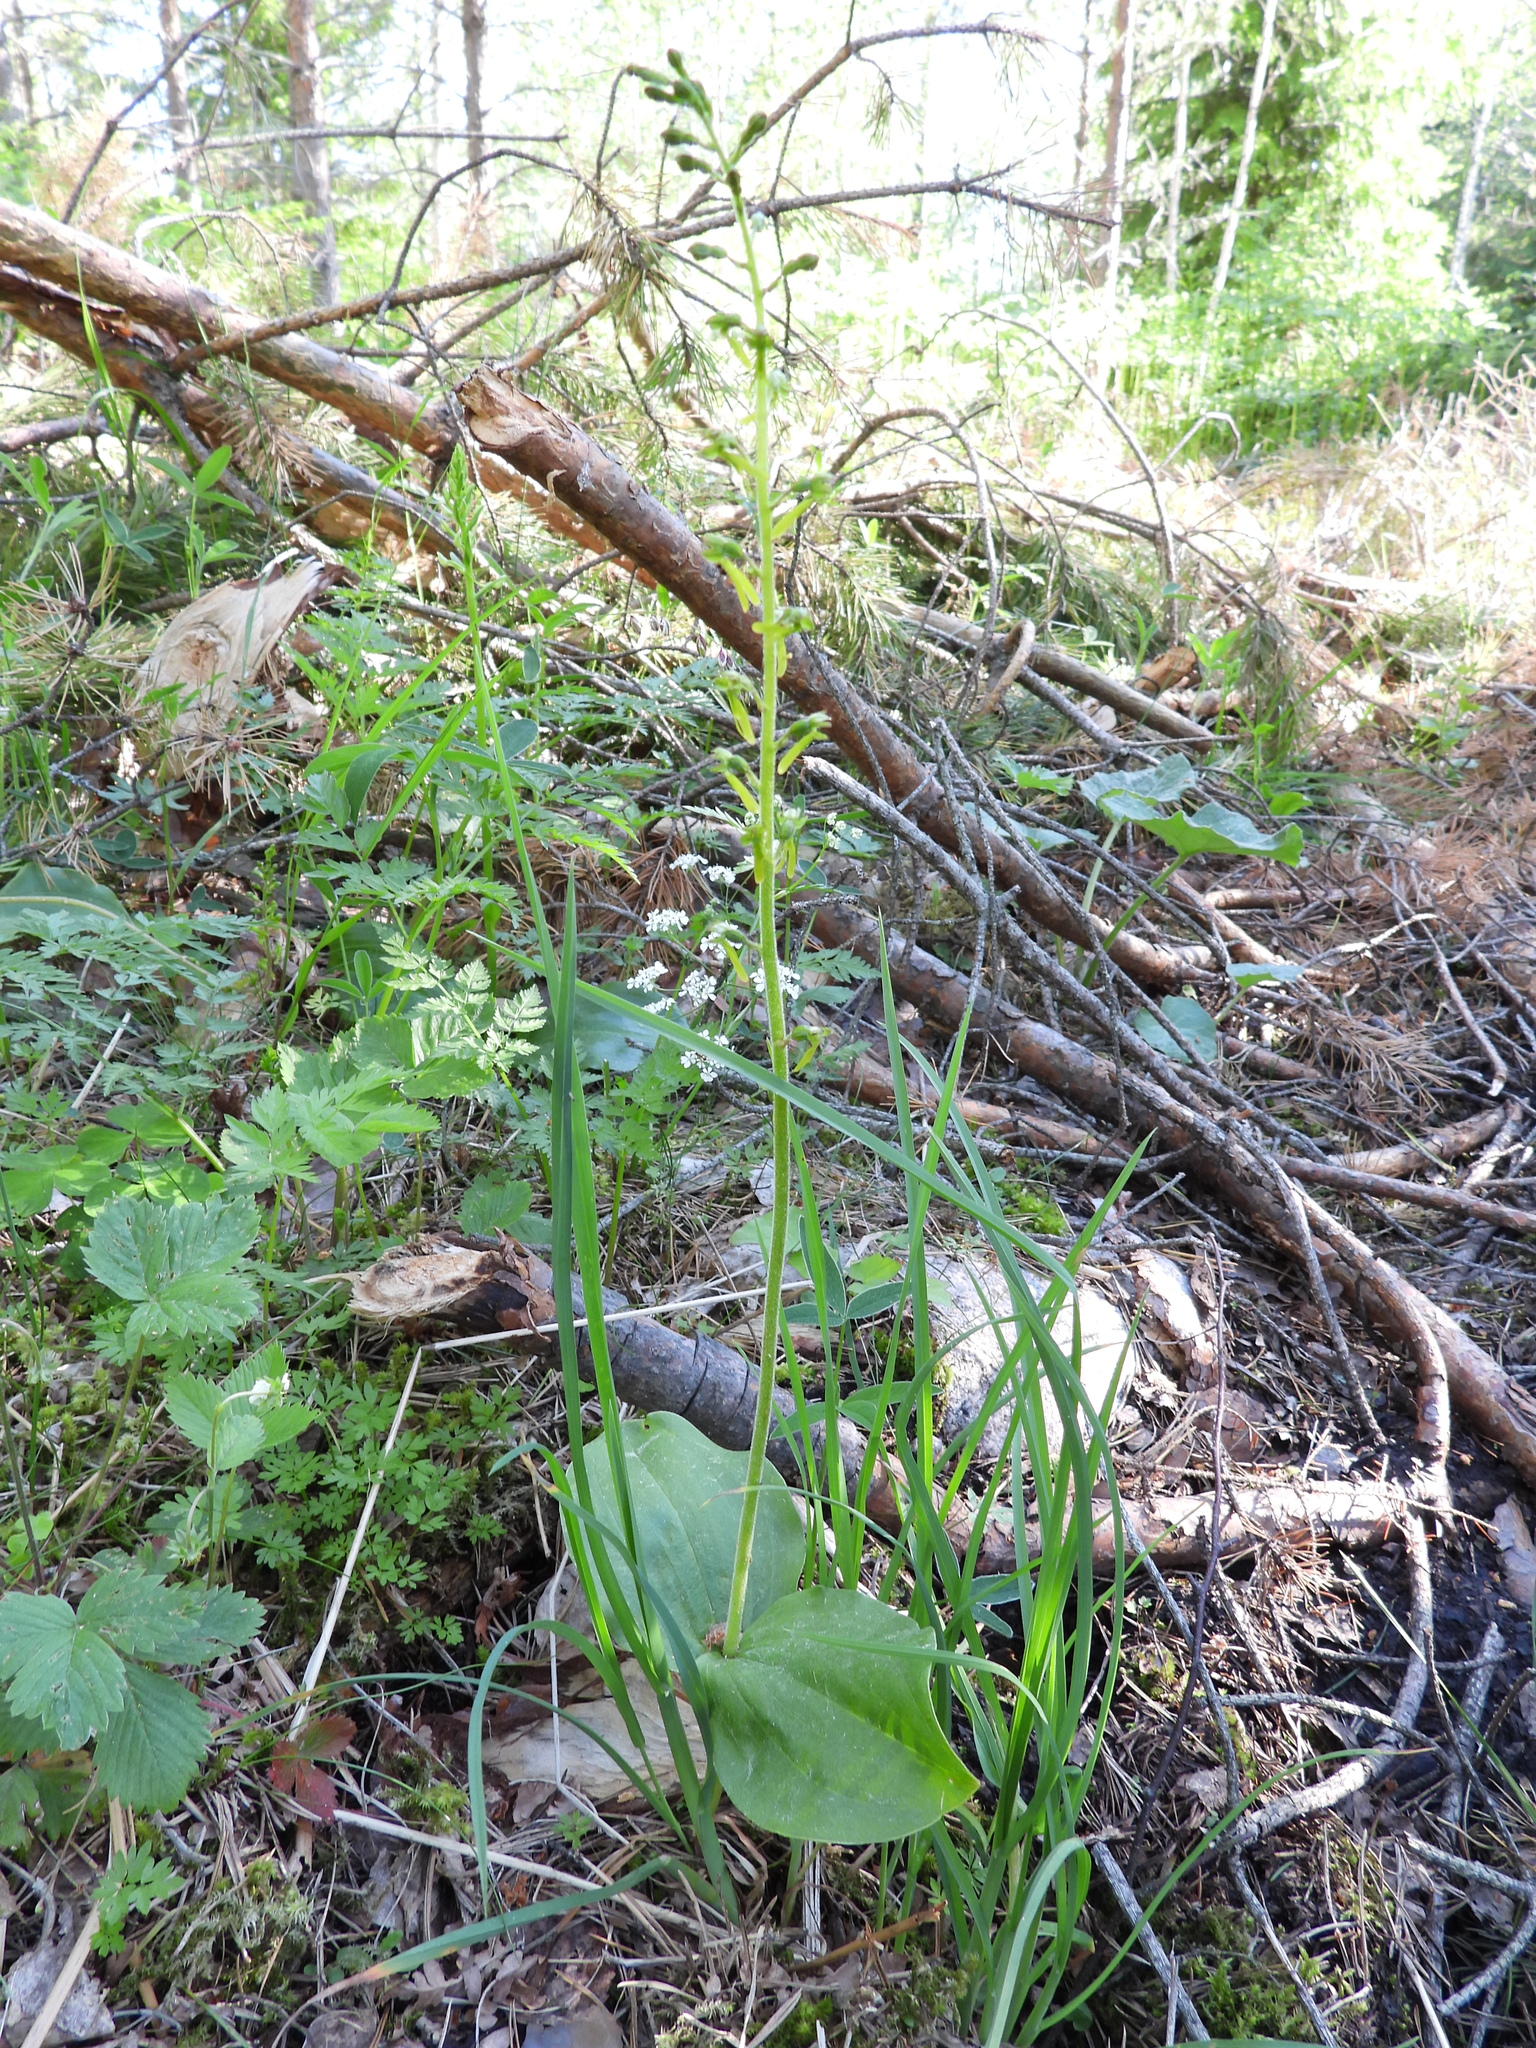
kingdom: Plantae
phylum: Tracheophyta
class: Liliopsida
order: Asparagales
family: Orchidaceae
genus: Neottia
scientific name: Neottia ovata
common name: Common twayblade
